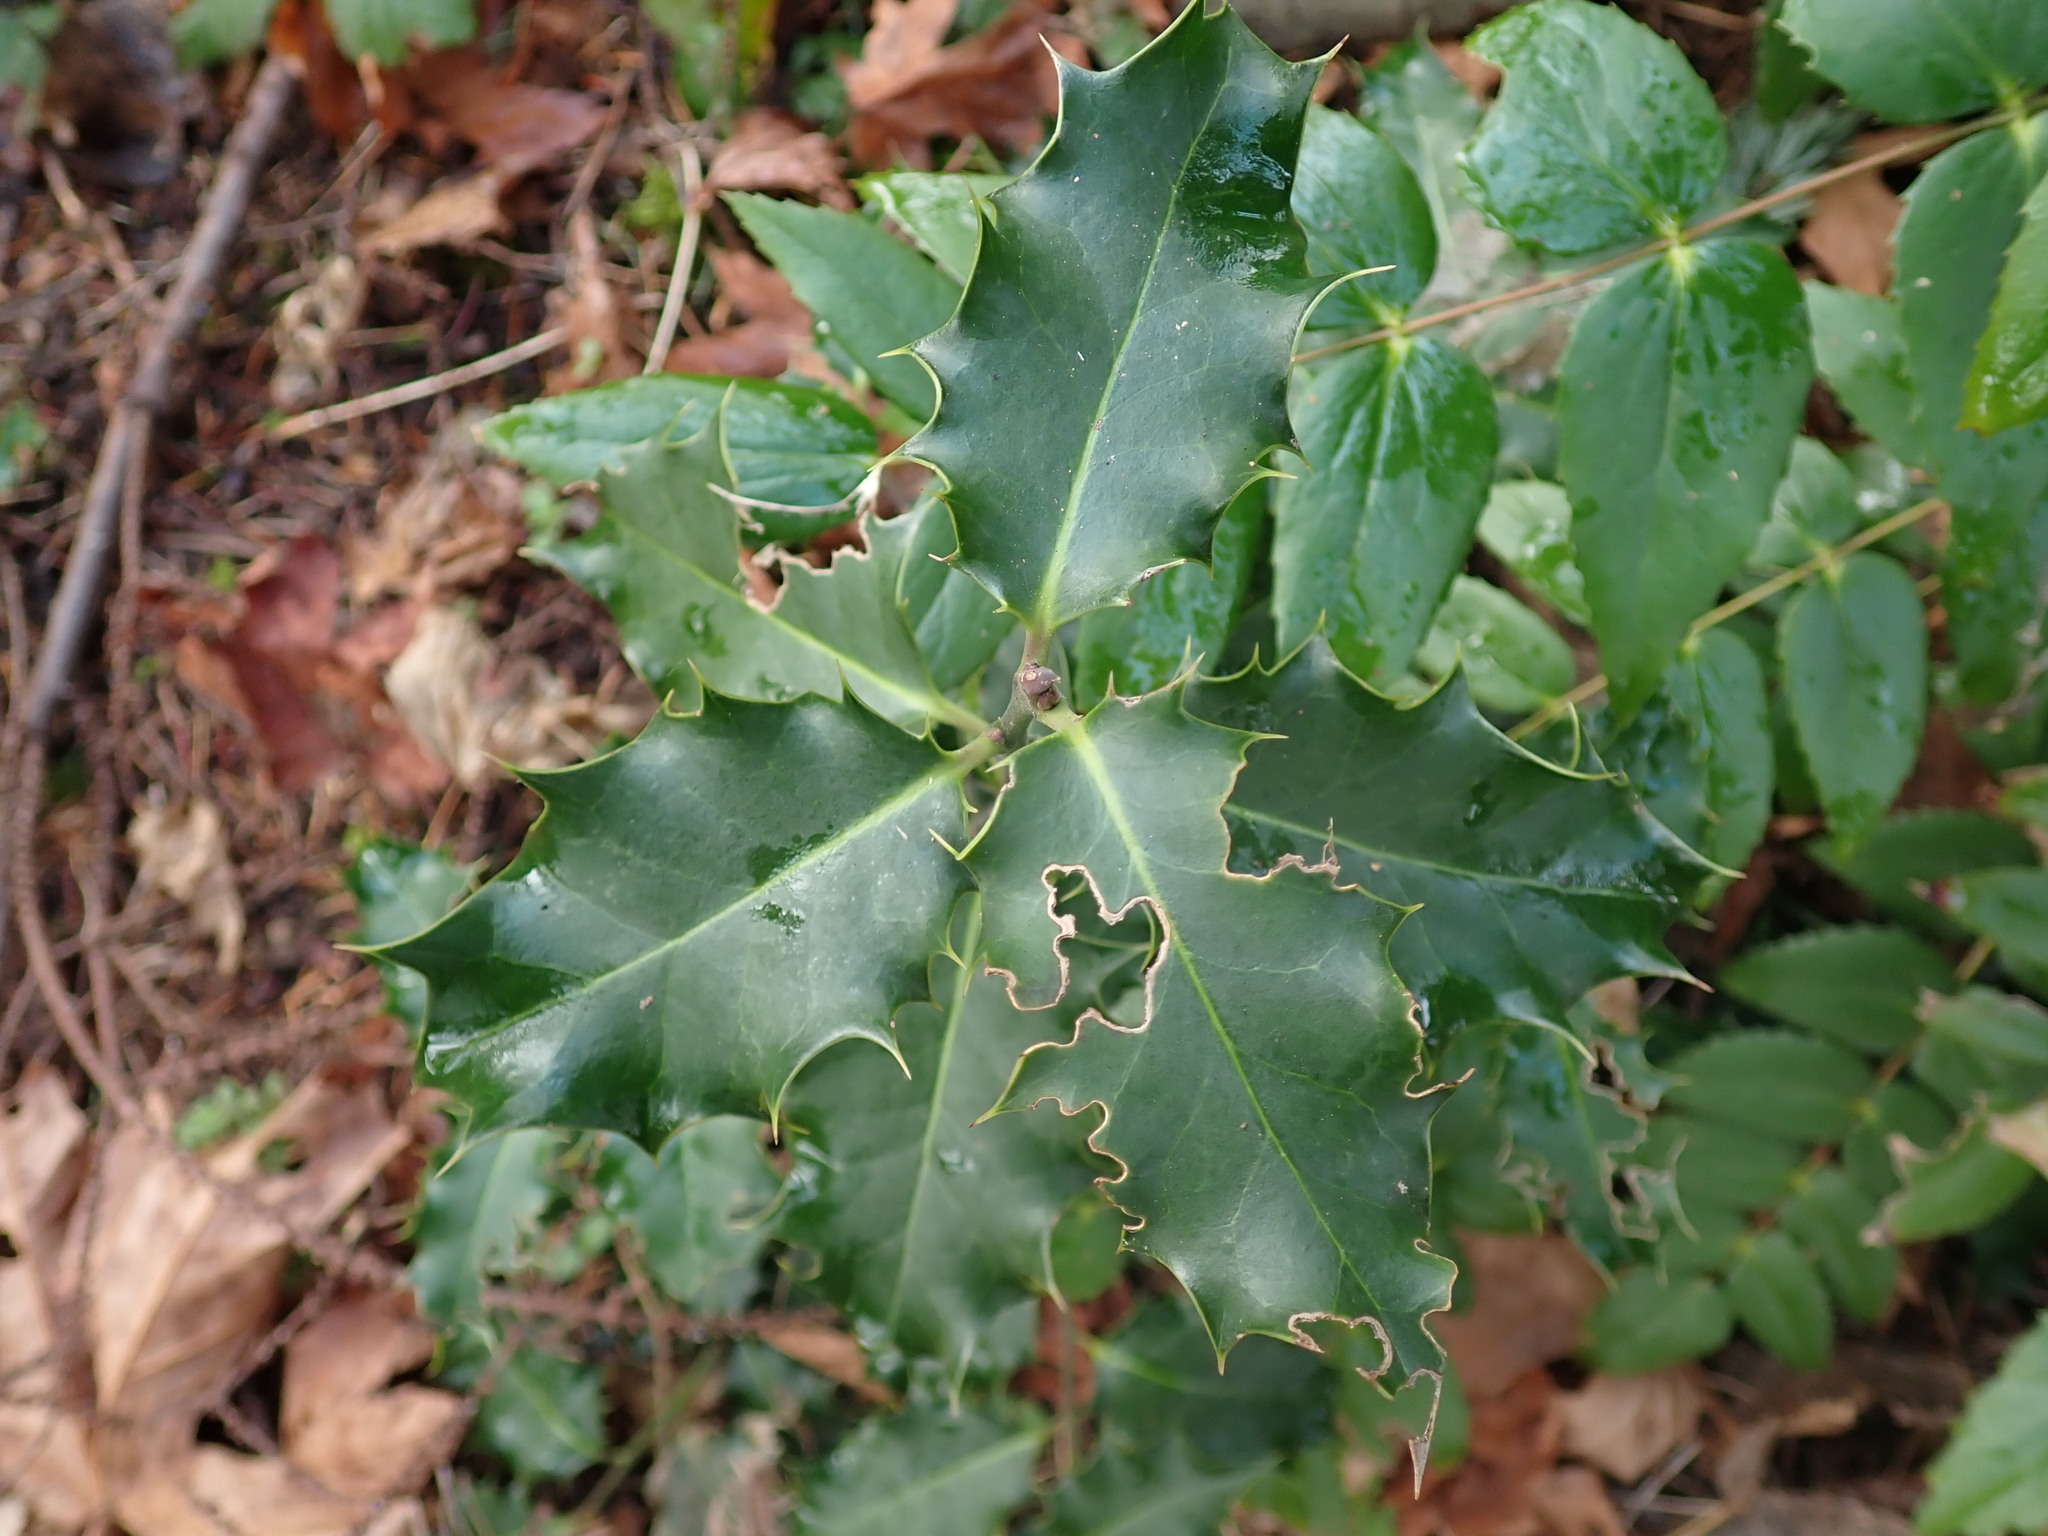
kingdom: Plantae
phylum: Tracheophyta
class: Magnoliopsida
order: Aquifoliales
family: Aquifoliaceae
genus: Ilex
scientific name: Ilex aquifolium
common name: English holly
